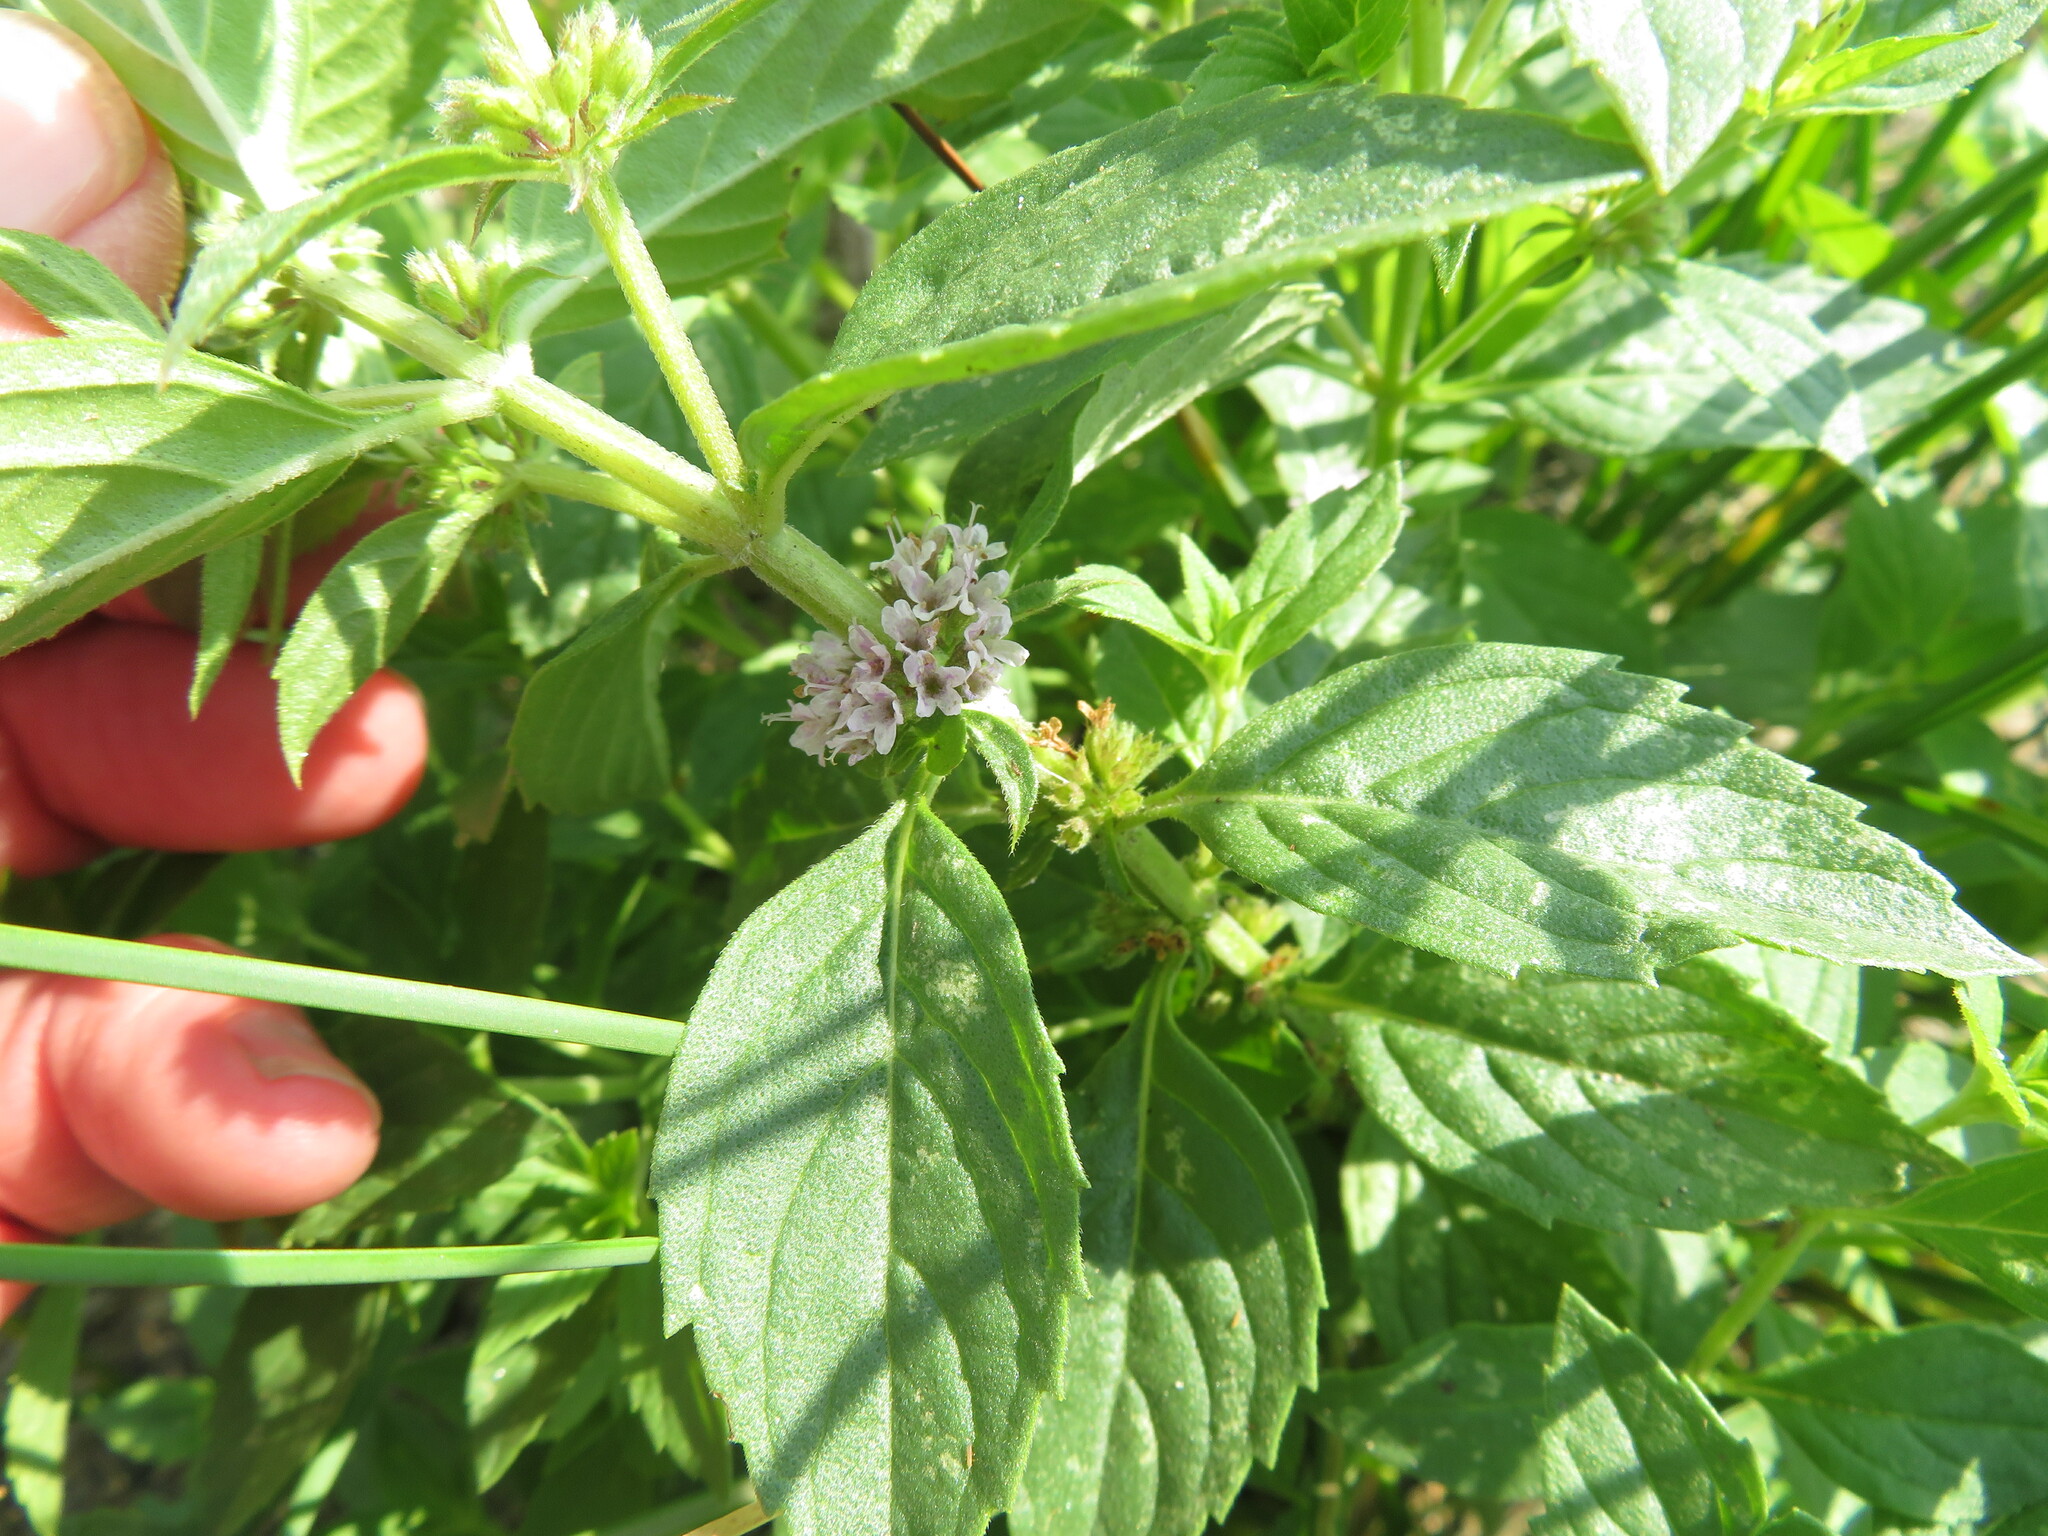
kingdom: Plantae
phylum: Tracheophyta
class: Magnoliopsida
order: Lamiales
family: Lamiaceae
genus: Mentha
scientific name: Mentha canadensis
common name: American corn mint
